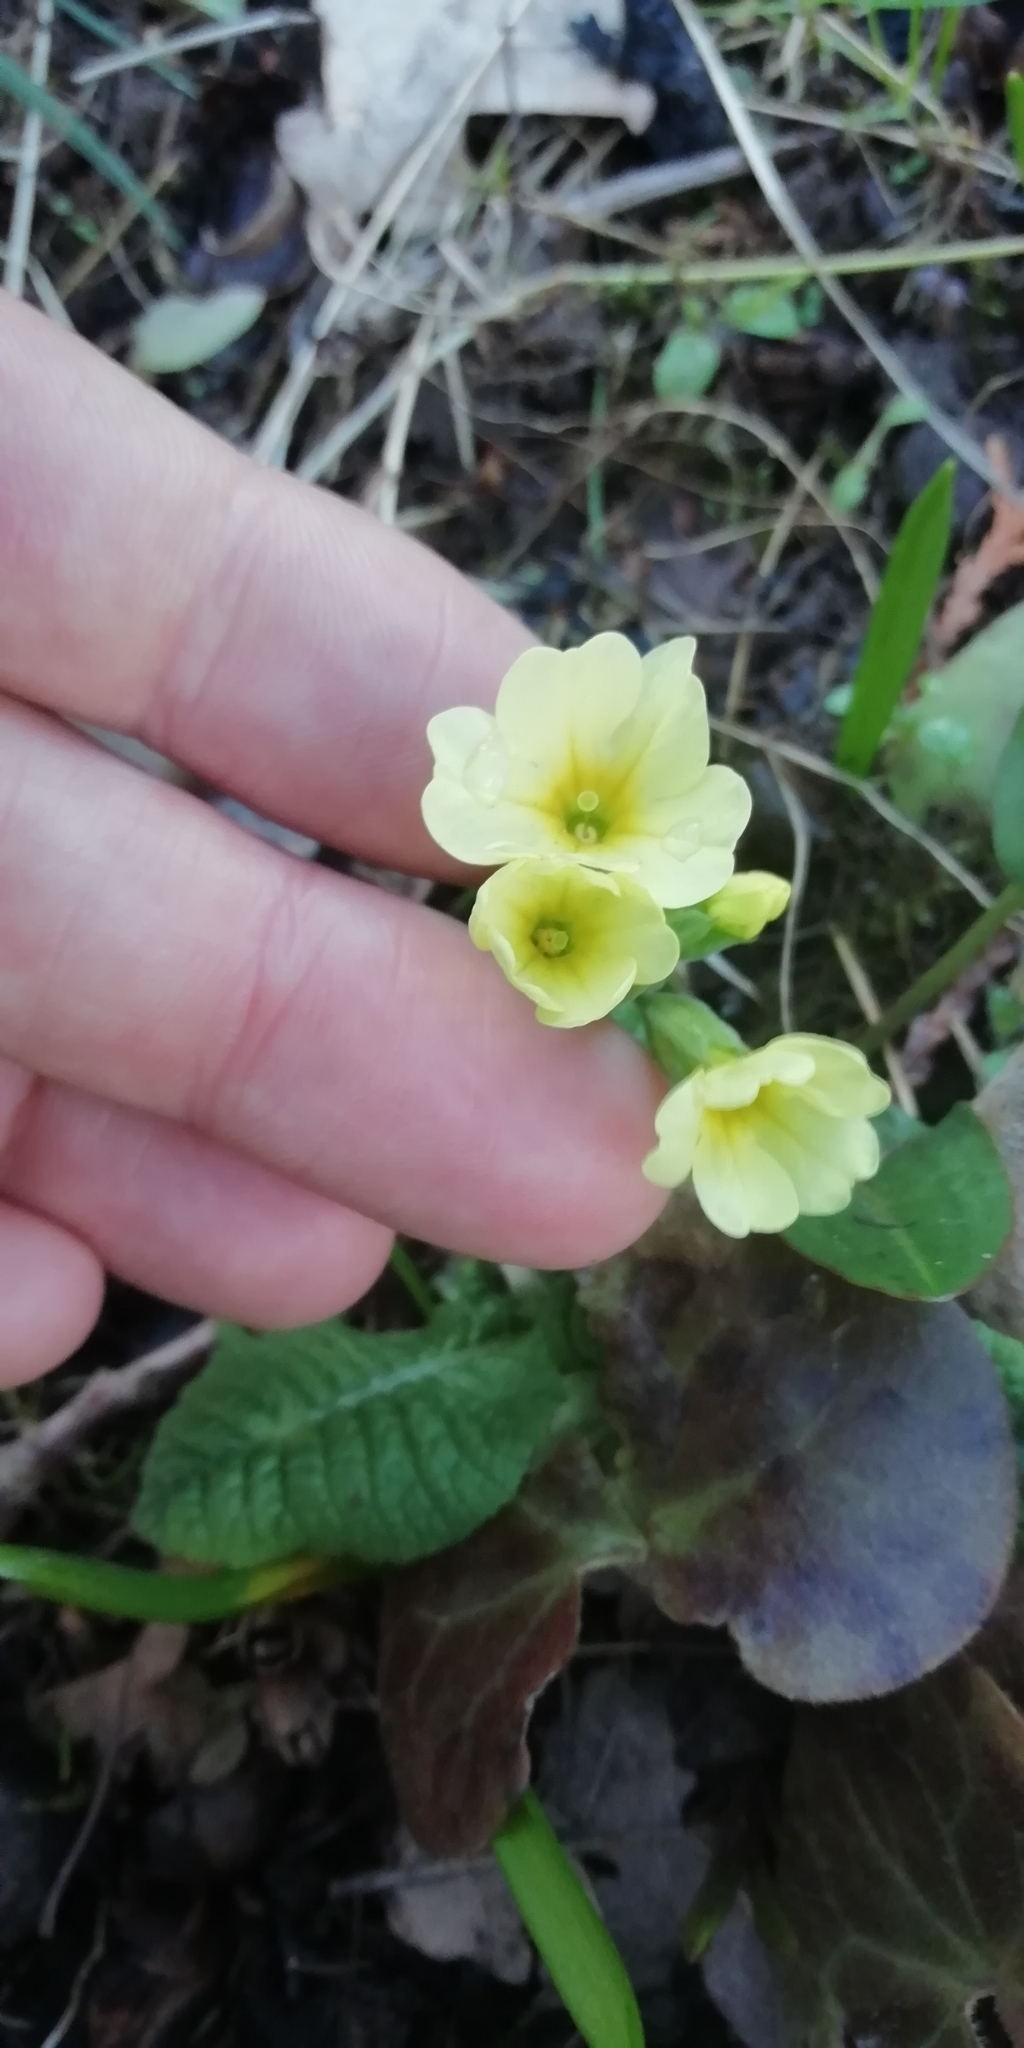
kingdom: Plantae
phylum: Tracheophyta
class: Magnoliopsida
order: Ericales
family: Primulaceae
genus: Primula
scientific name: Primula elatior
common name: Oxlip
